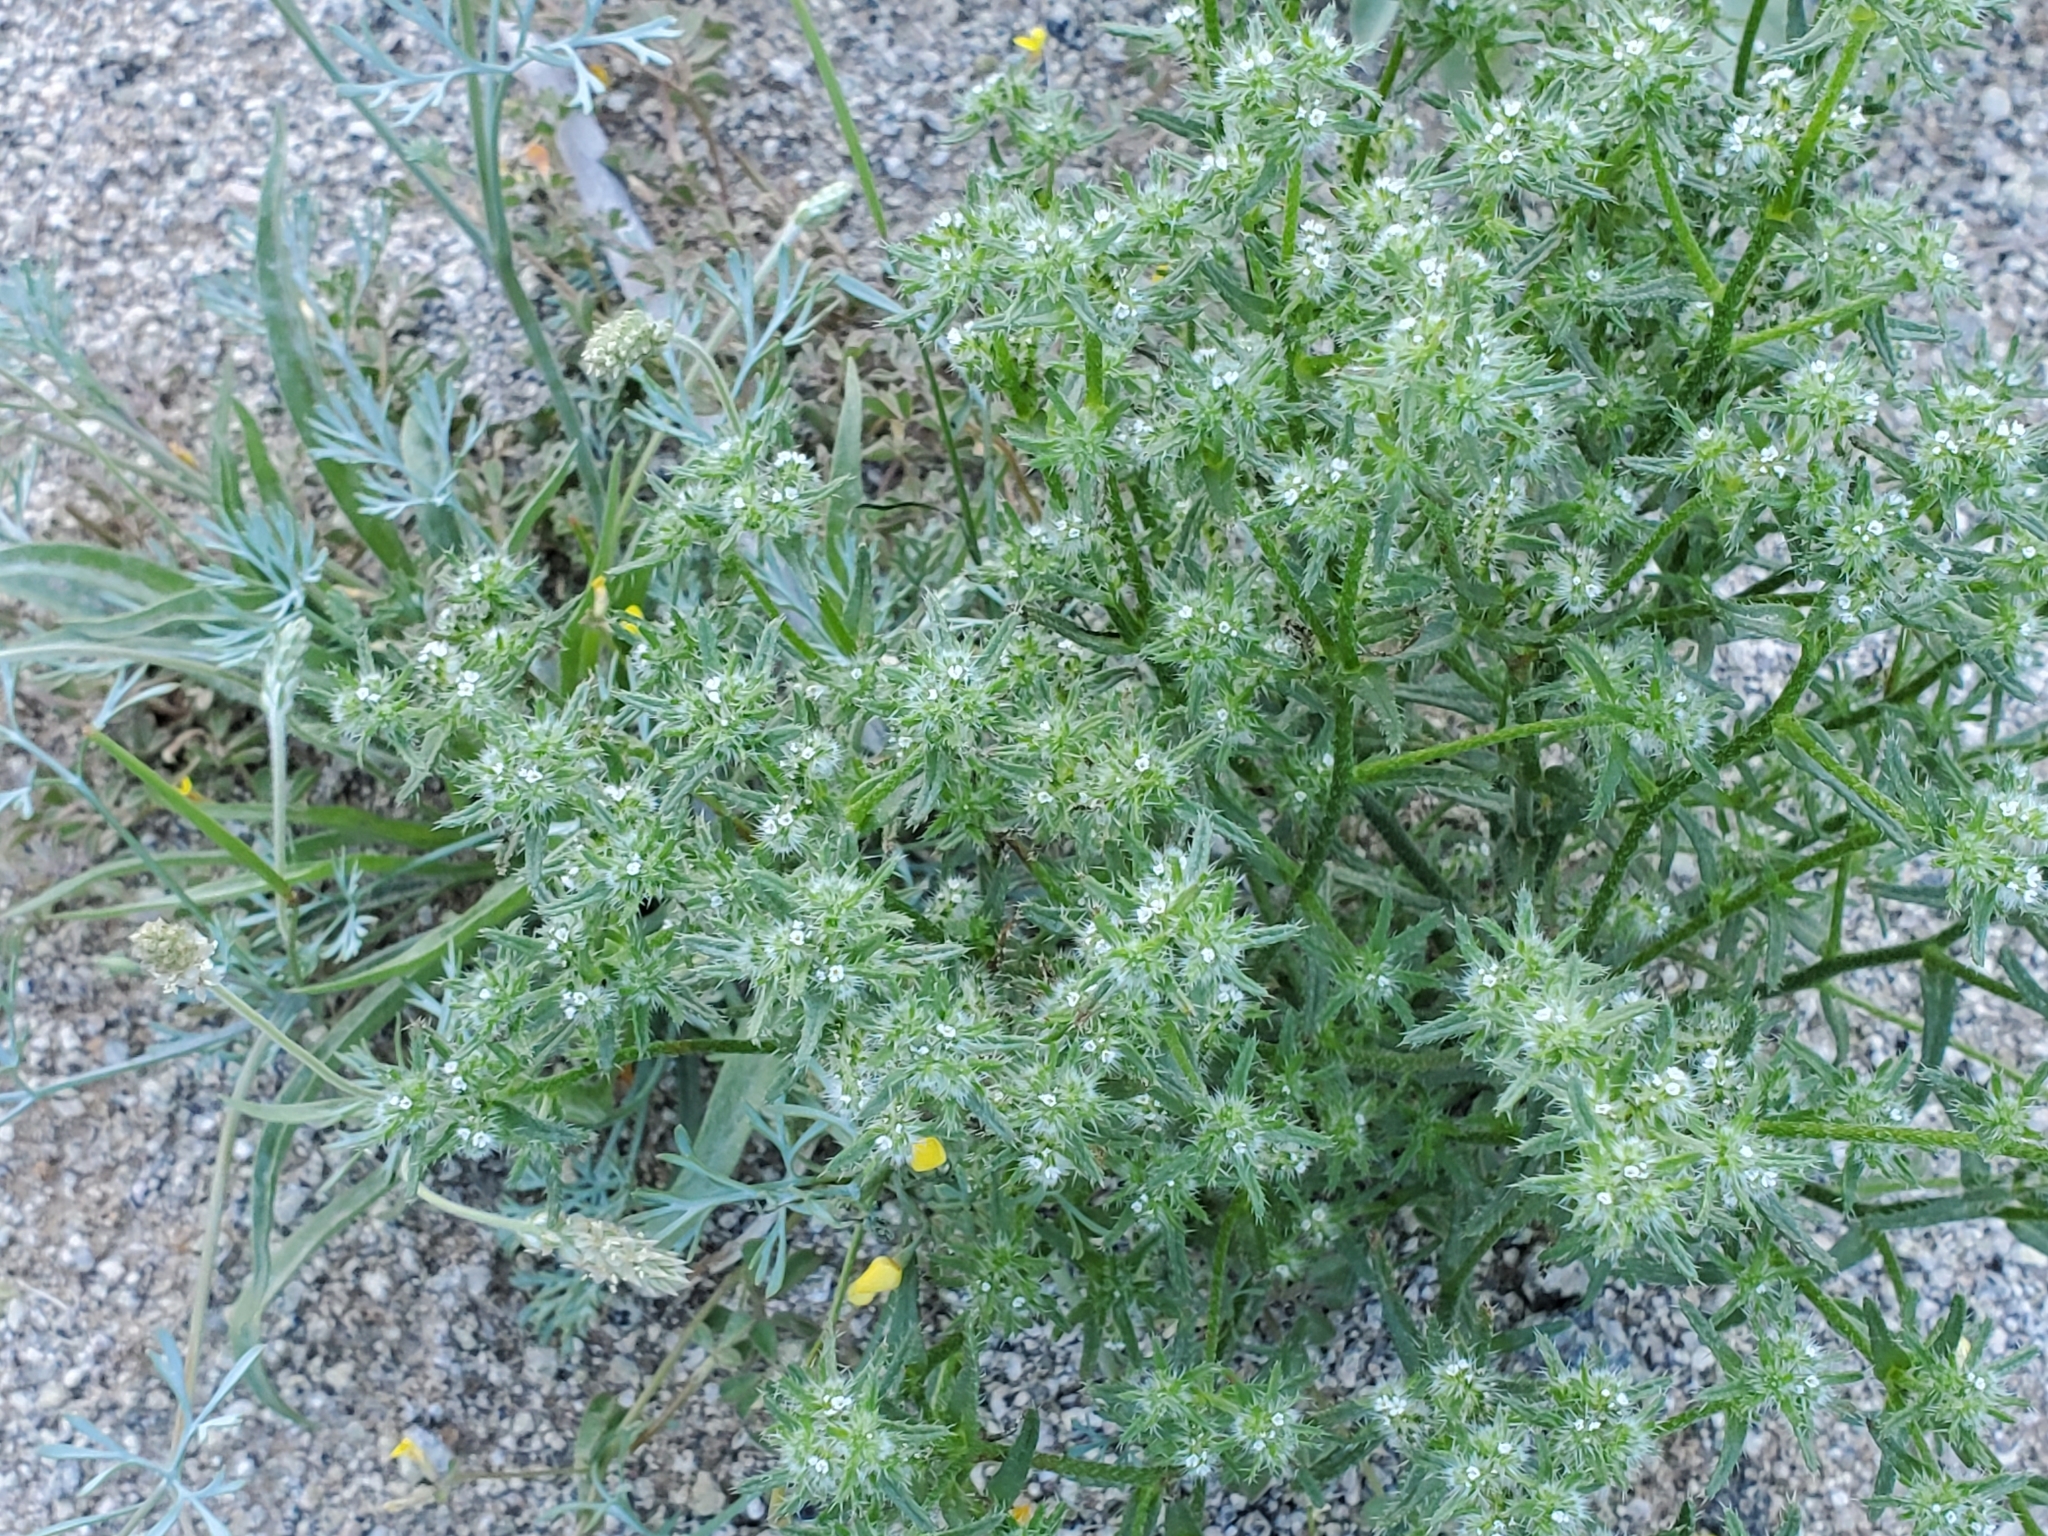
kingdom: Plantae
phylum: Tracheophyta
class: Magnoliopsida
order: Boraginales
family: Boraginaceae
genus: Cryptantha
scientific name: Cryptantha maritima
